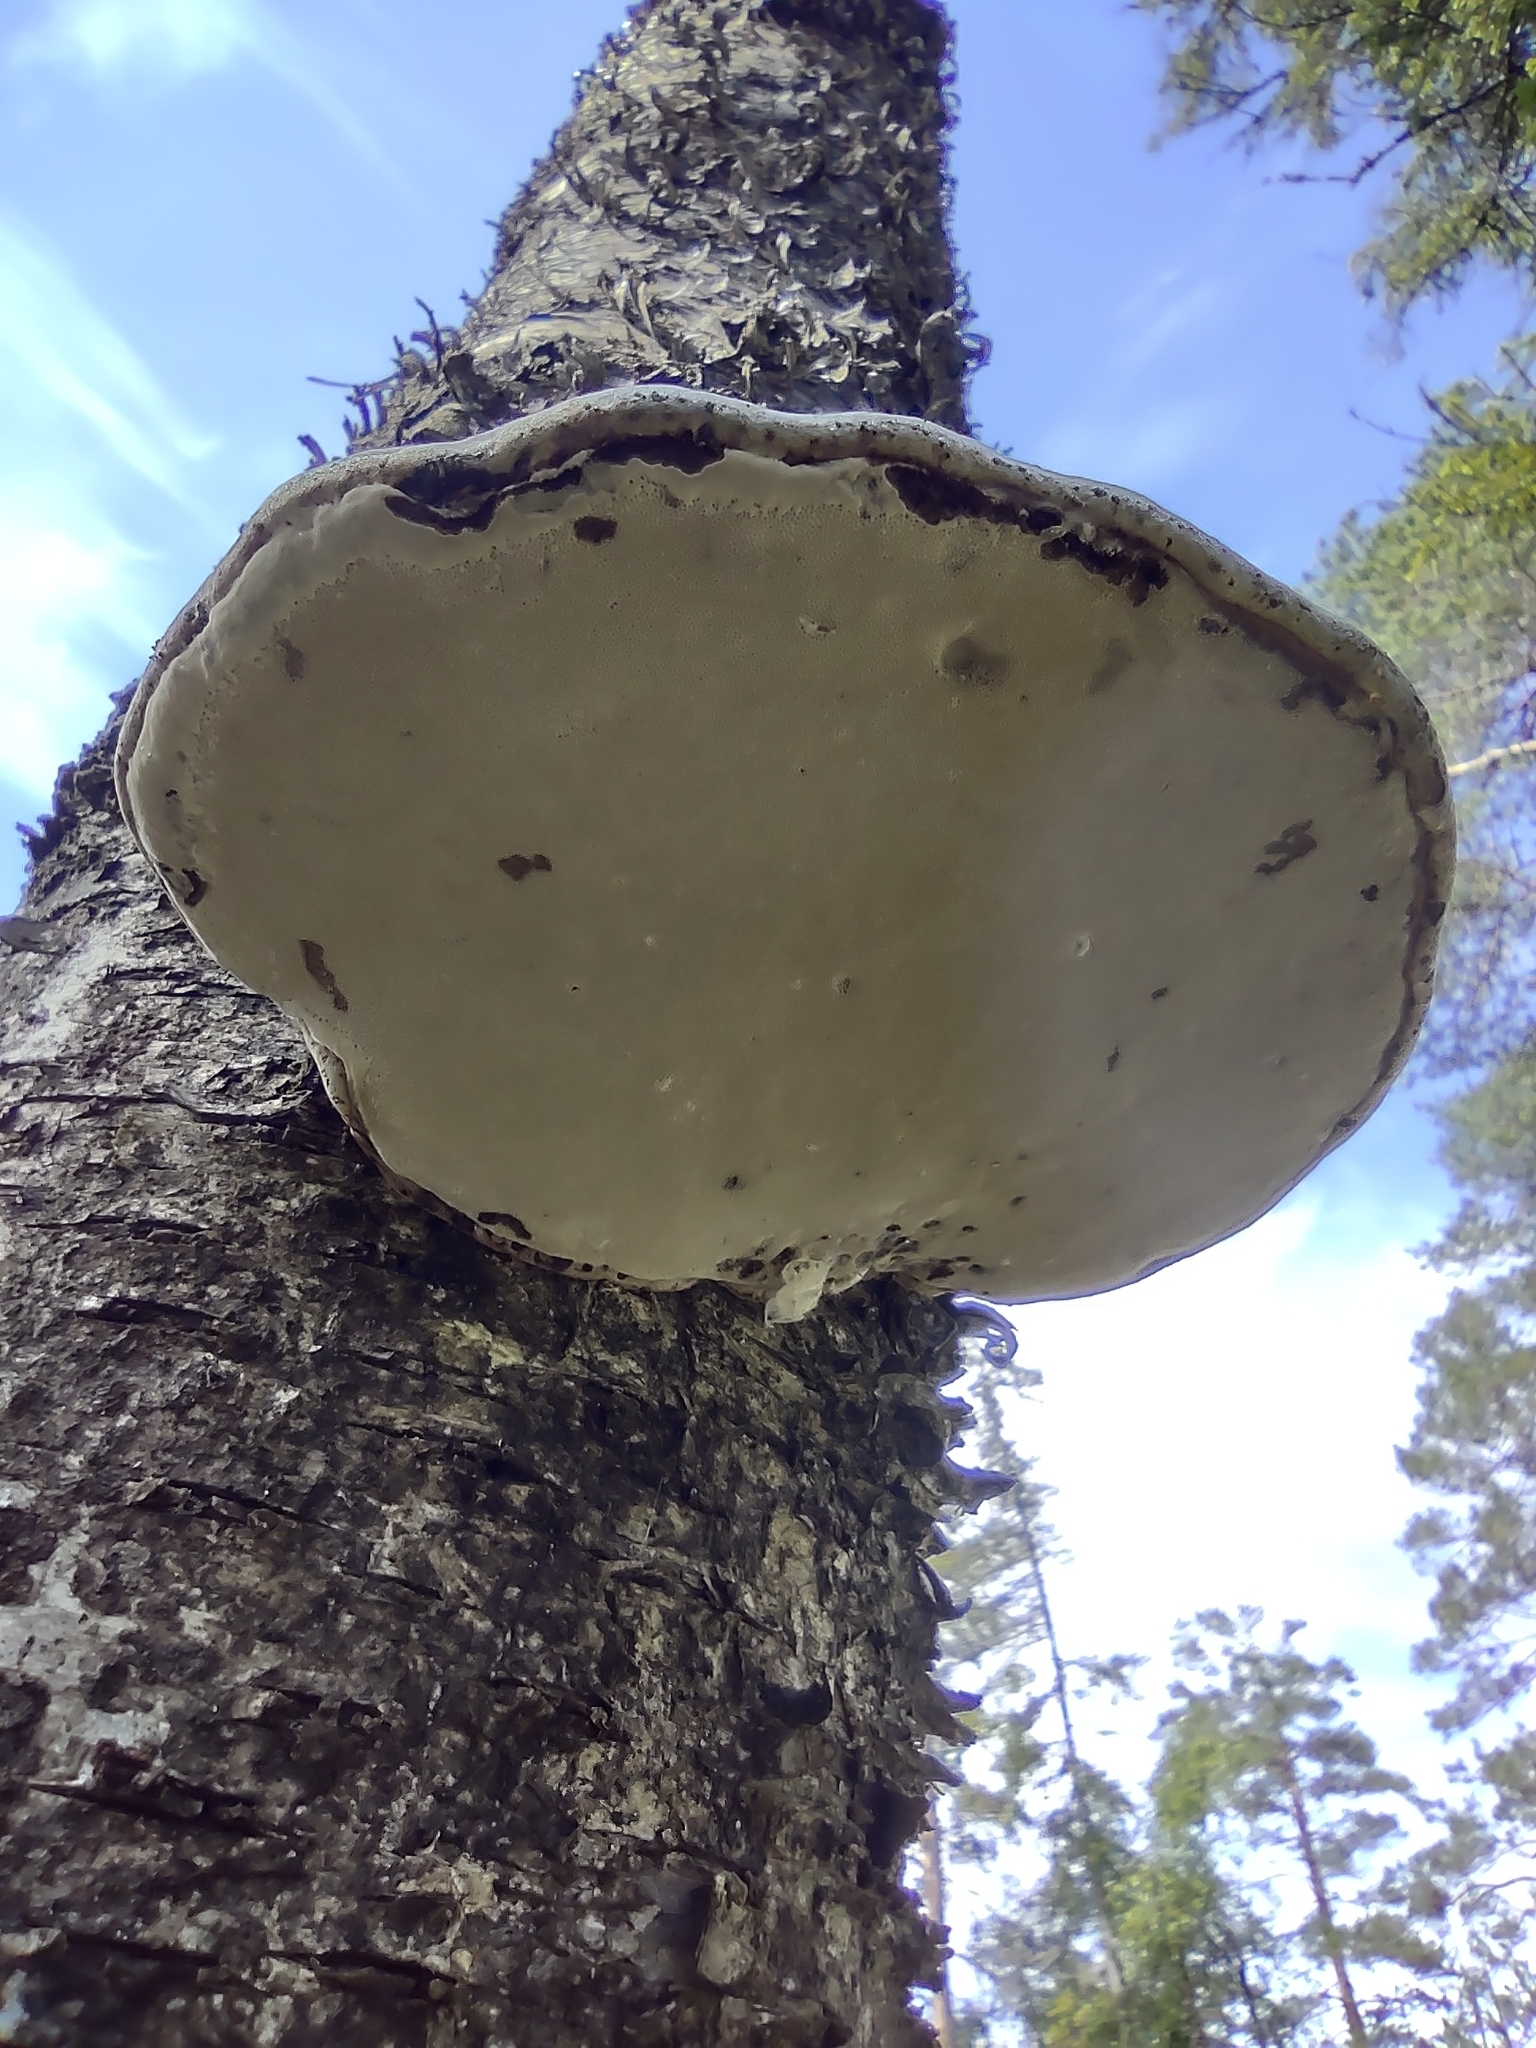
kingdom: Fungi
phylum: Basidiomycota
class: Agaricomycetes
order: Polyporales
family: Polyporaceae
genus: Fomes
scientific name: Fomes fomentarius
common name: Hoof fungus
